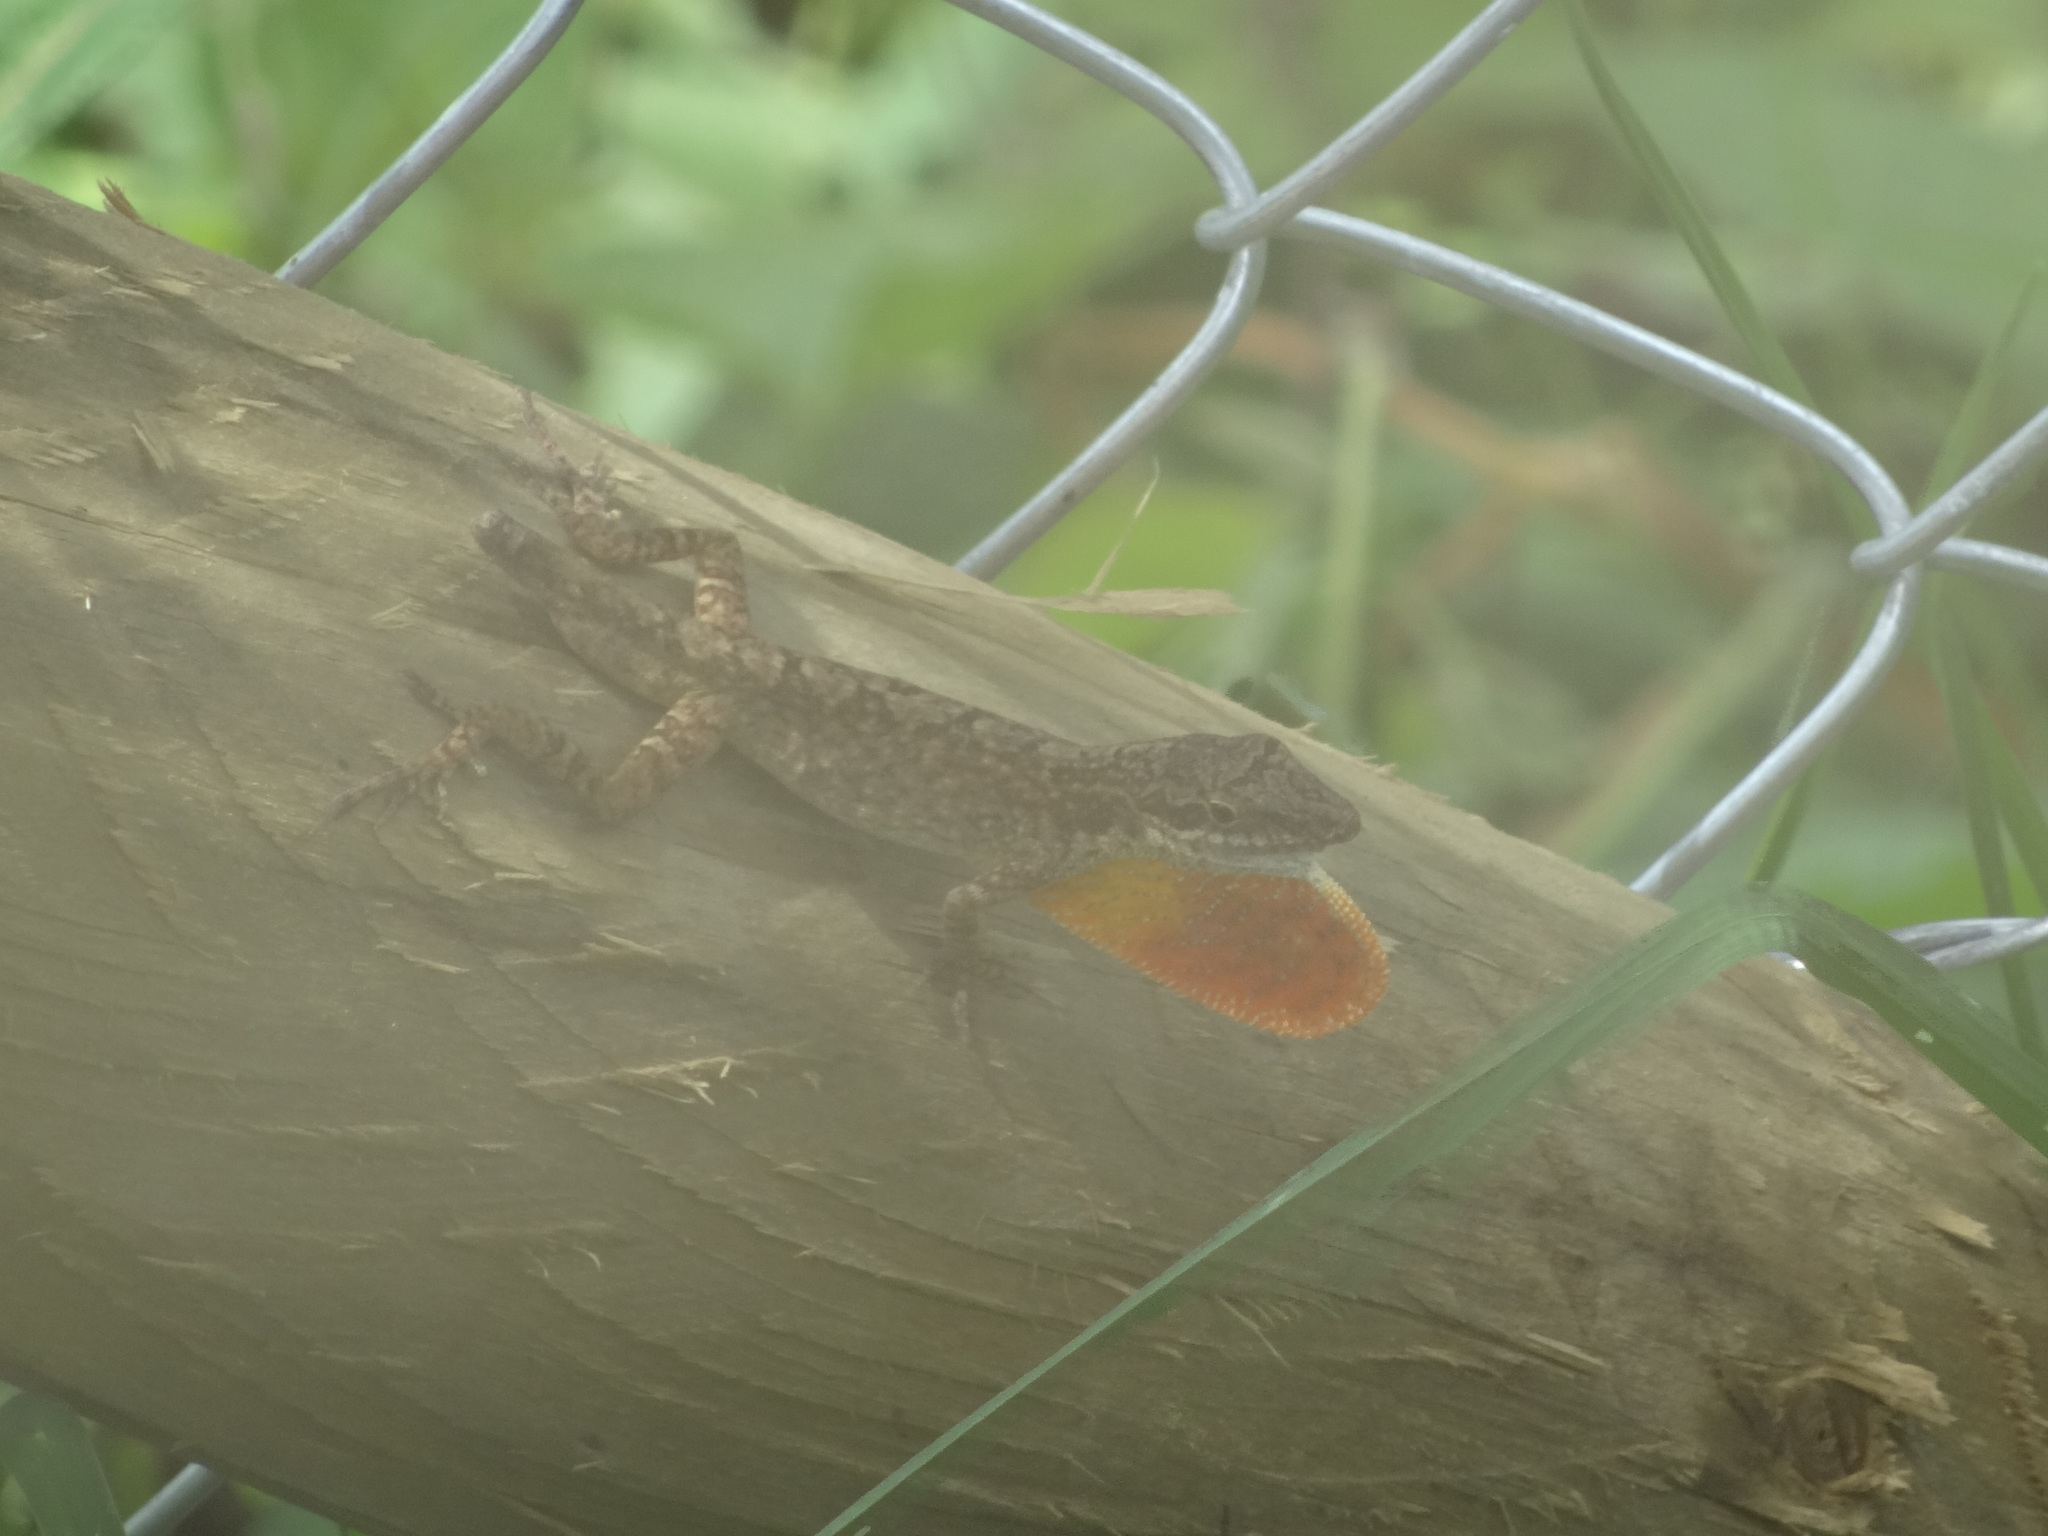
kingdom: Animalia
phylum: Chordata
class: Squamata
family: Dactyloidae
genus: Anolis
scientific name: Anolis mariarum
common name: Blemished anole
